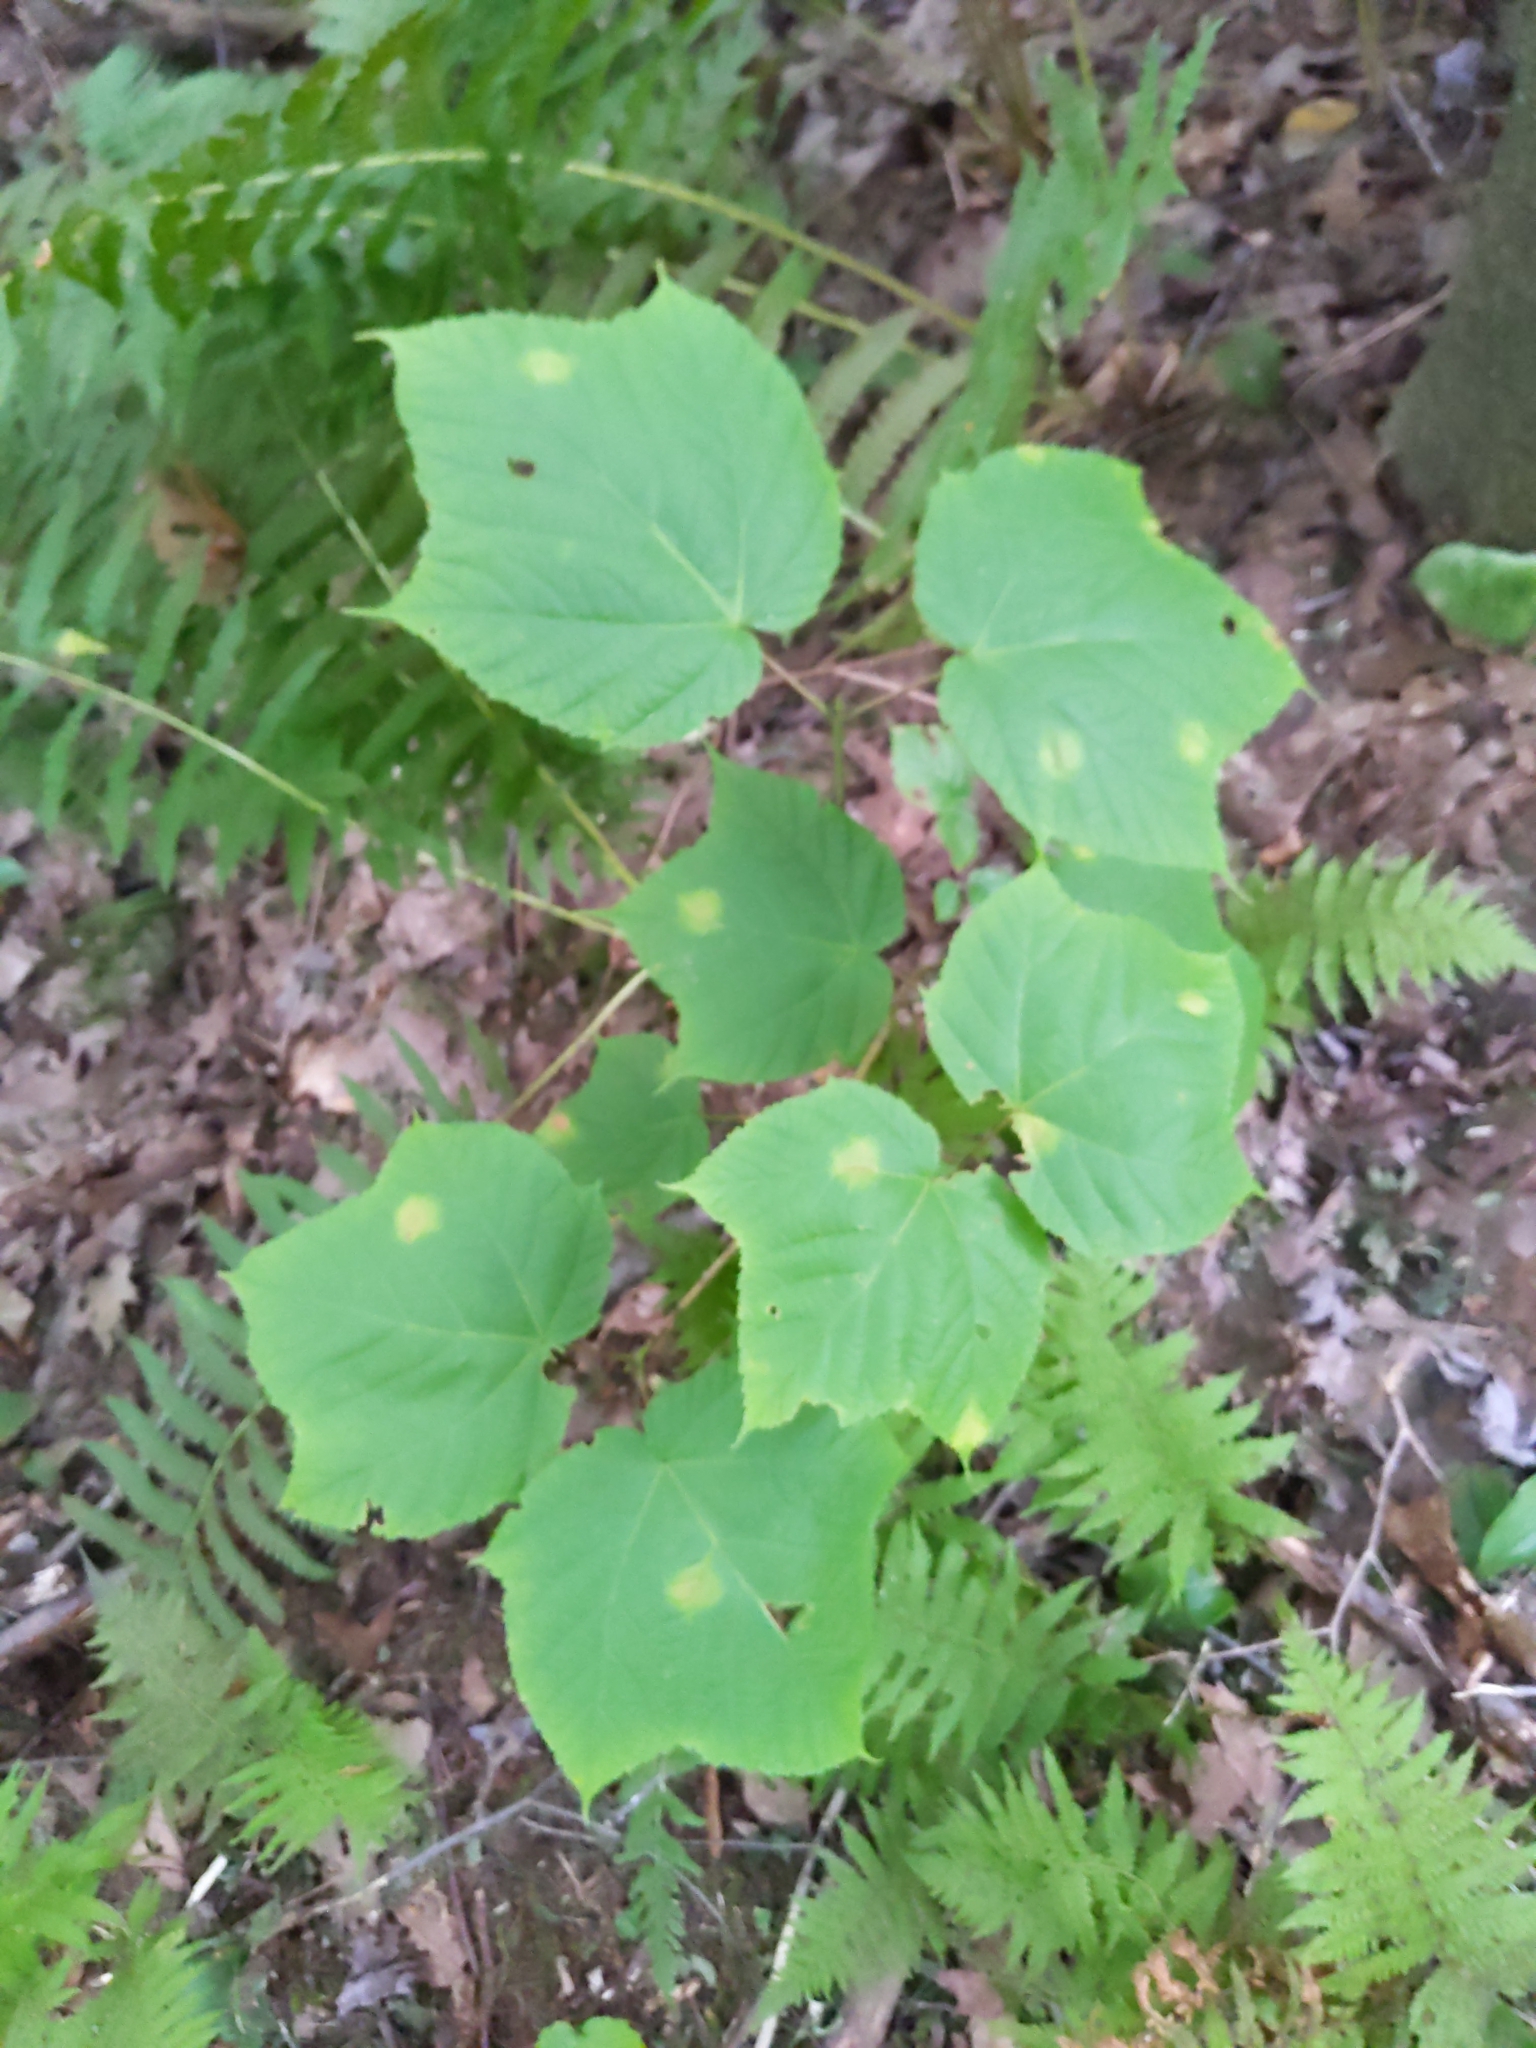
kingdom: Plantae
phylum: Tracheophyta
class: Magnoliopsida
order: Sapindales
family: Sapindaceae
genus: Acer
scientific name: Acer pensylvanicum
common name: Moosewood
